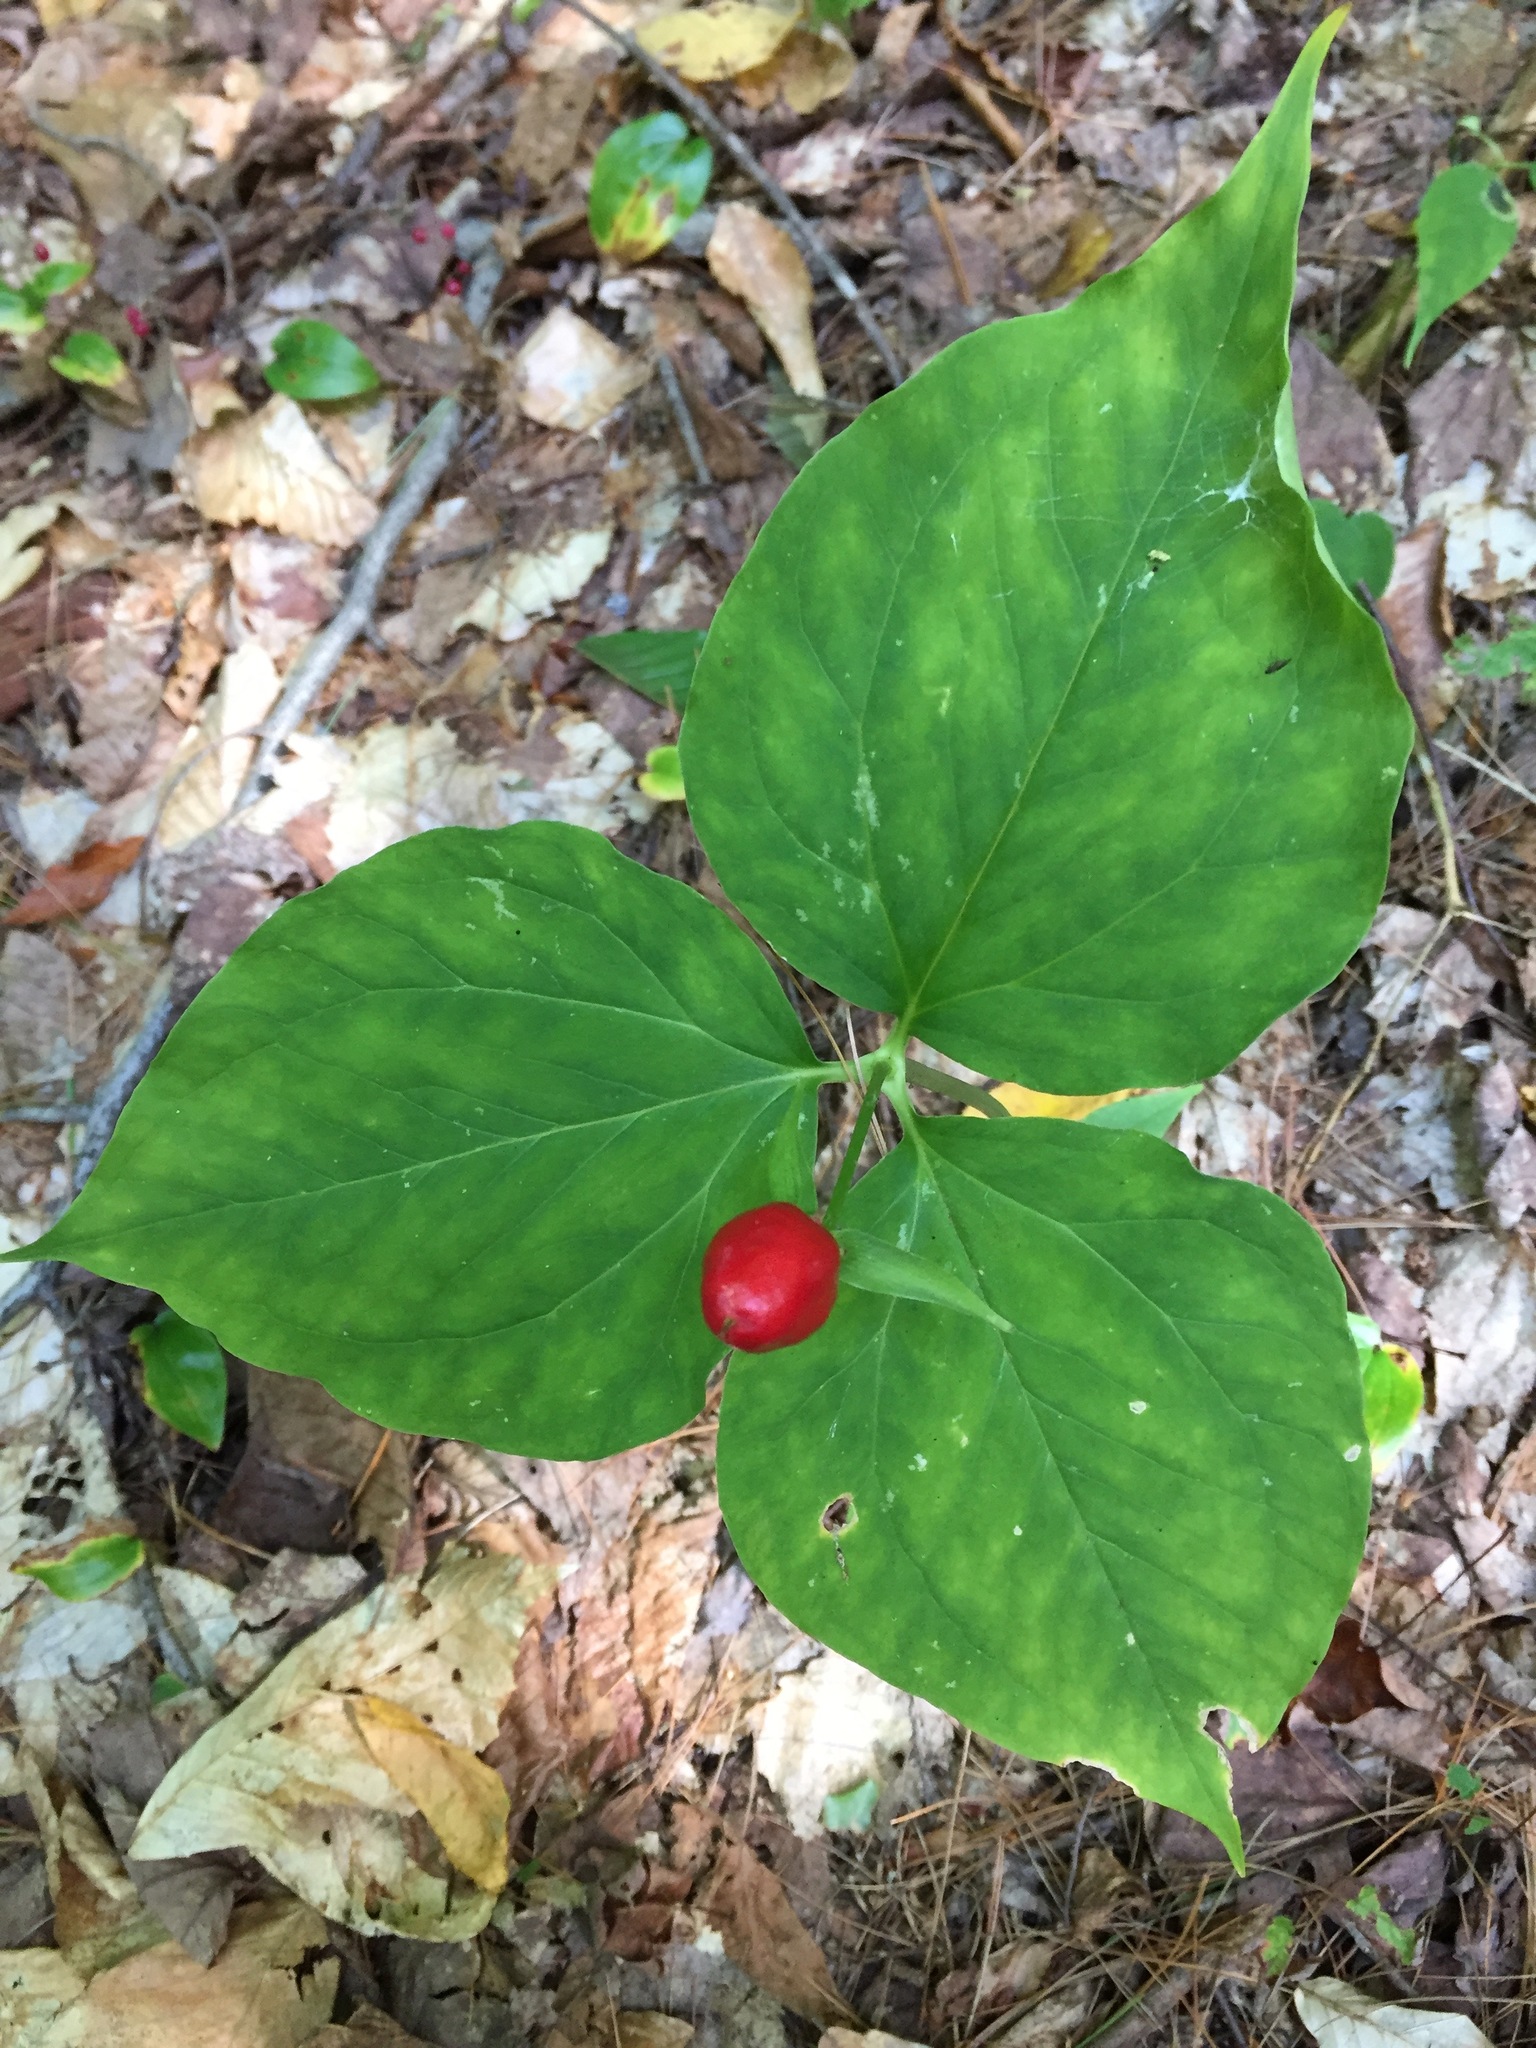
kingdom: Plantae
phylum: Tracheophyta
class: Liliopsida
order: Liliales
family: Melanthiaceae
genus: Trillium
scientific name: Trillium undulatum
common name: Paint trillium
